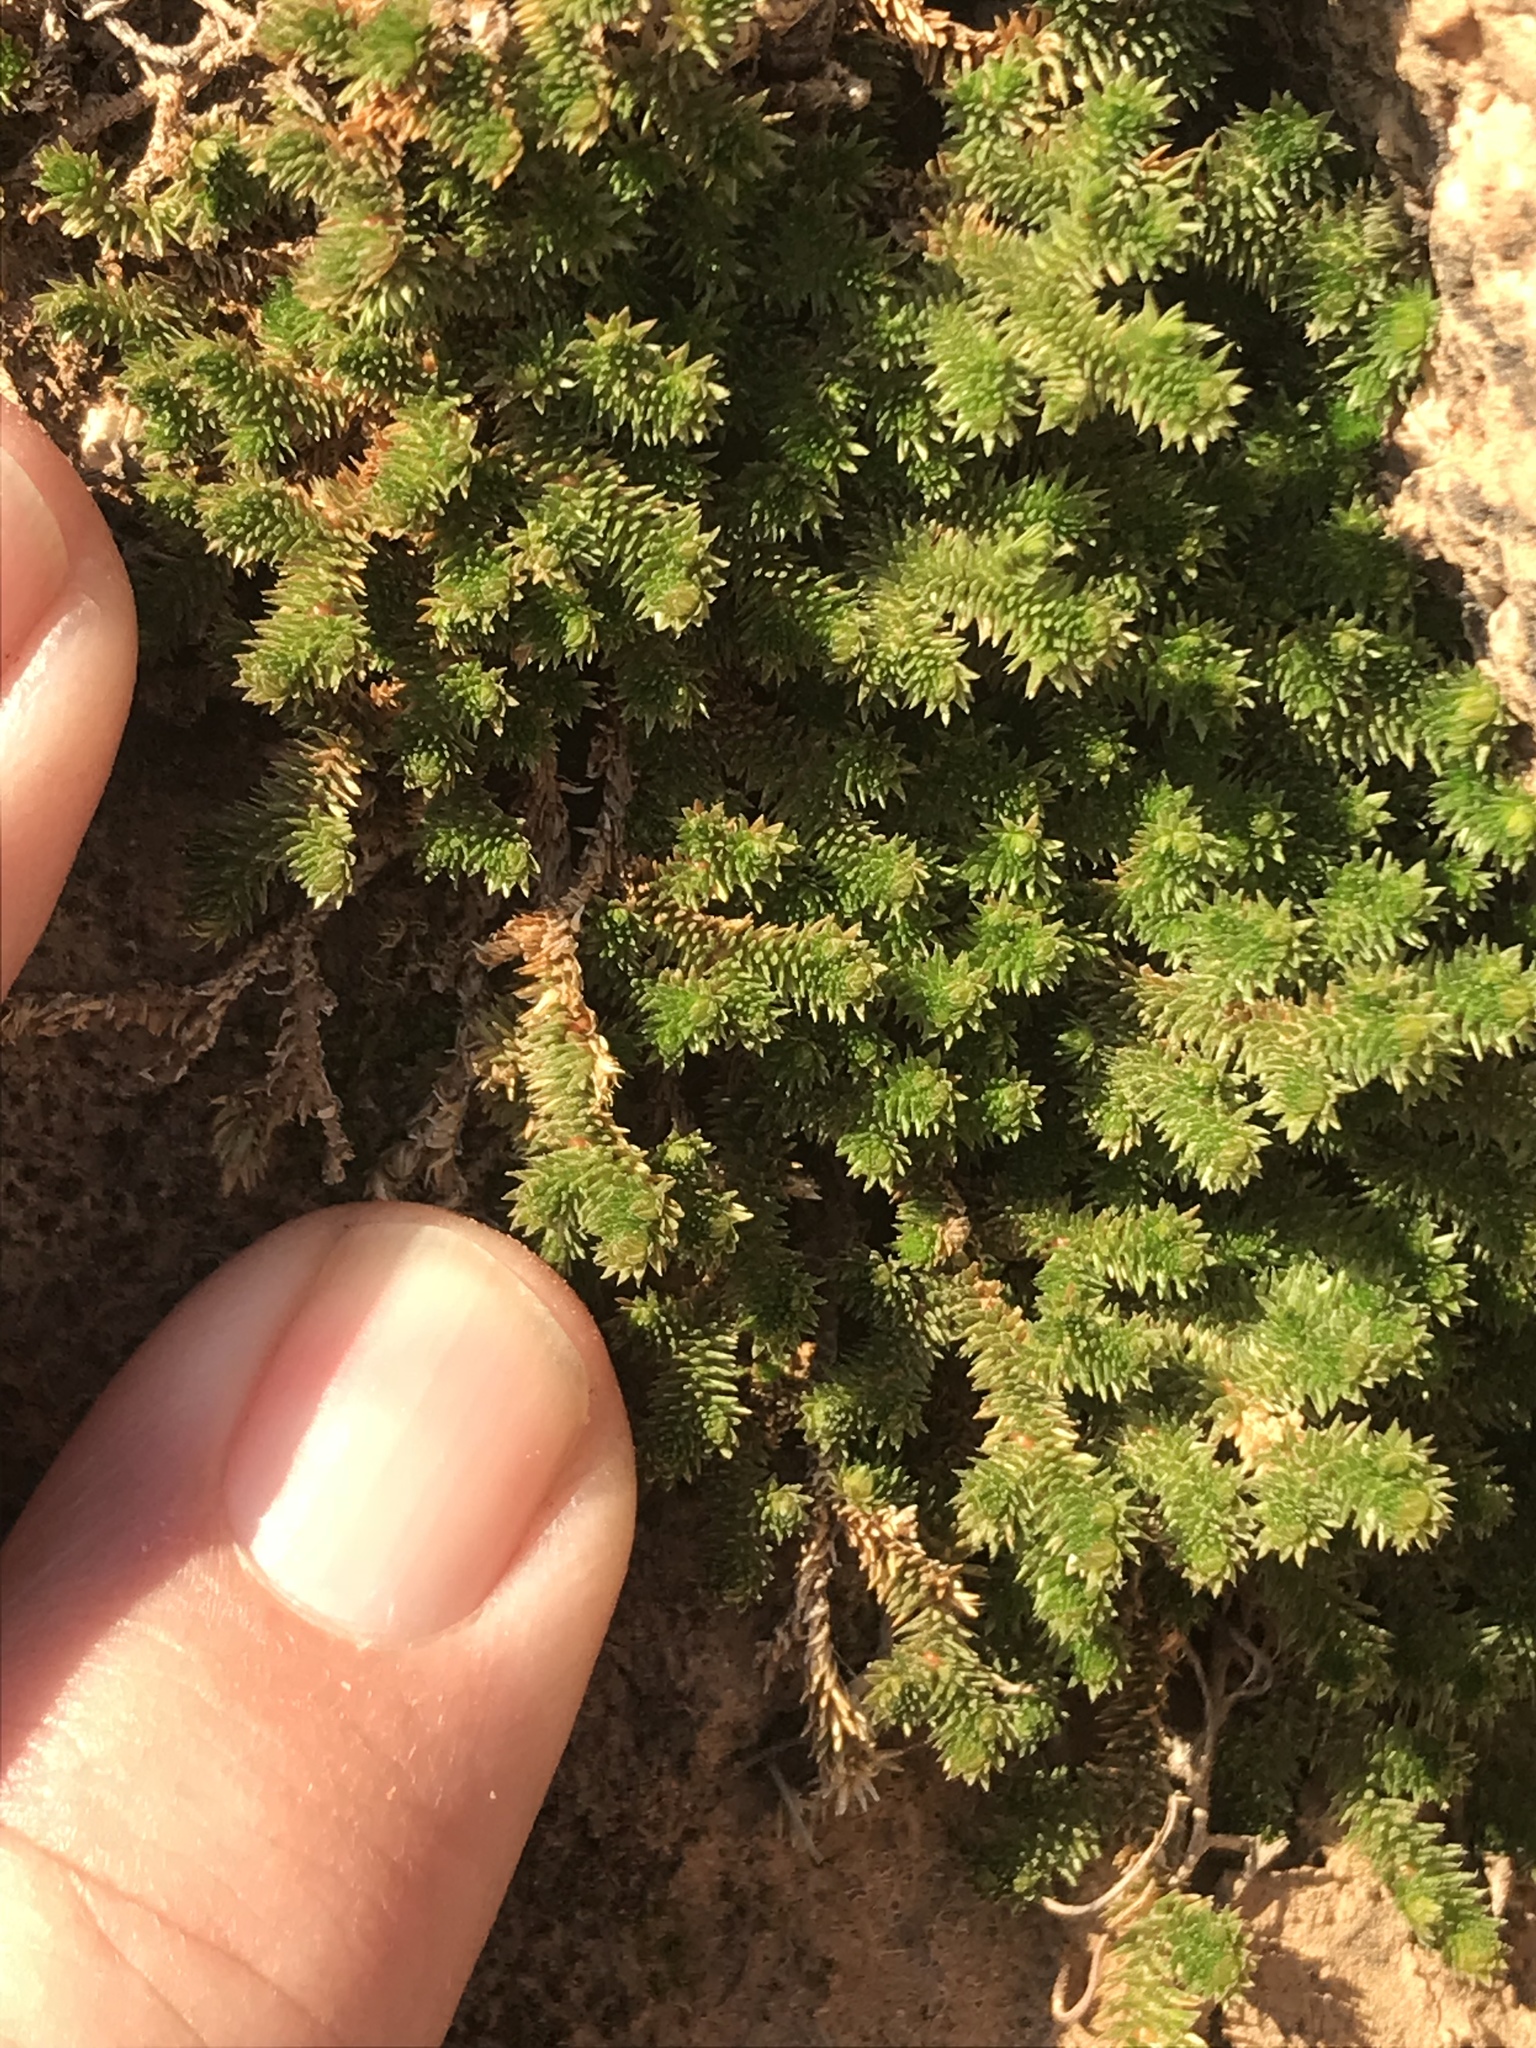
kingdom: Plantae
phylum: Tracheophyta
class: Lycopodiopsida
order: Selaginellales
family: Selaginellaceae
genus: Selaginella
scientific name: Selaginella arizonica
